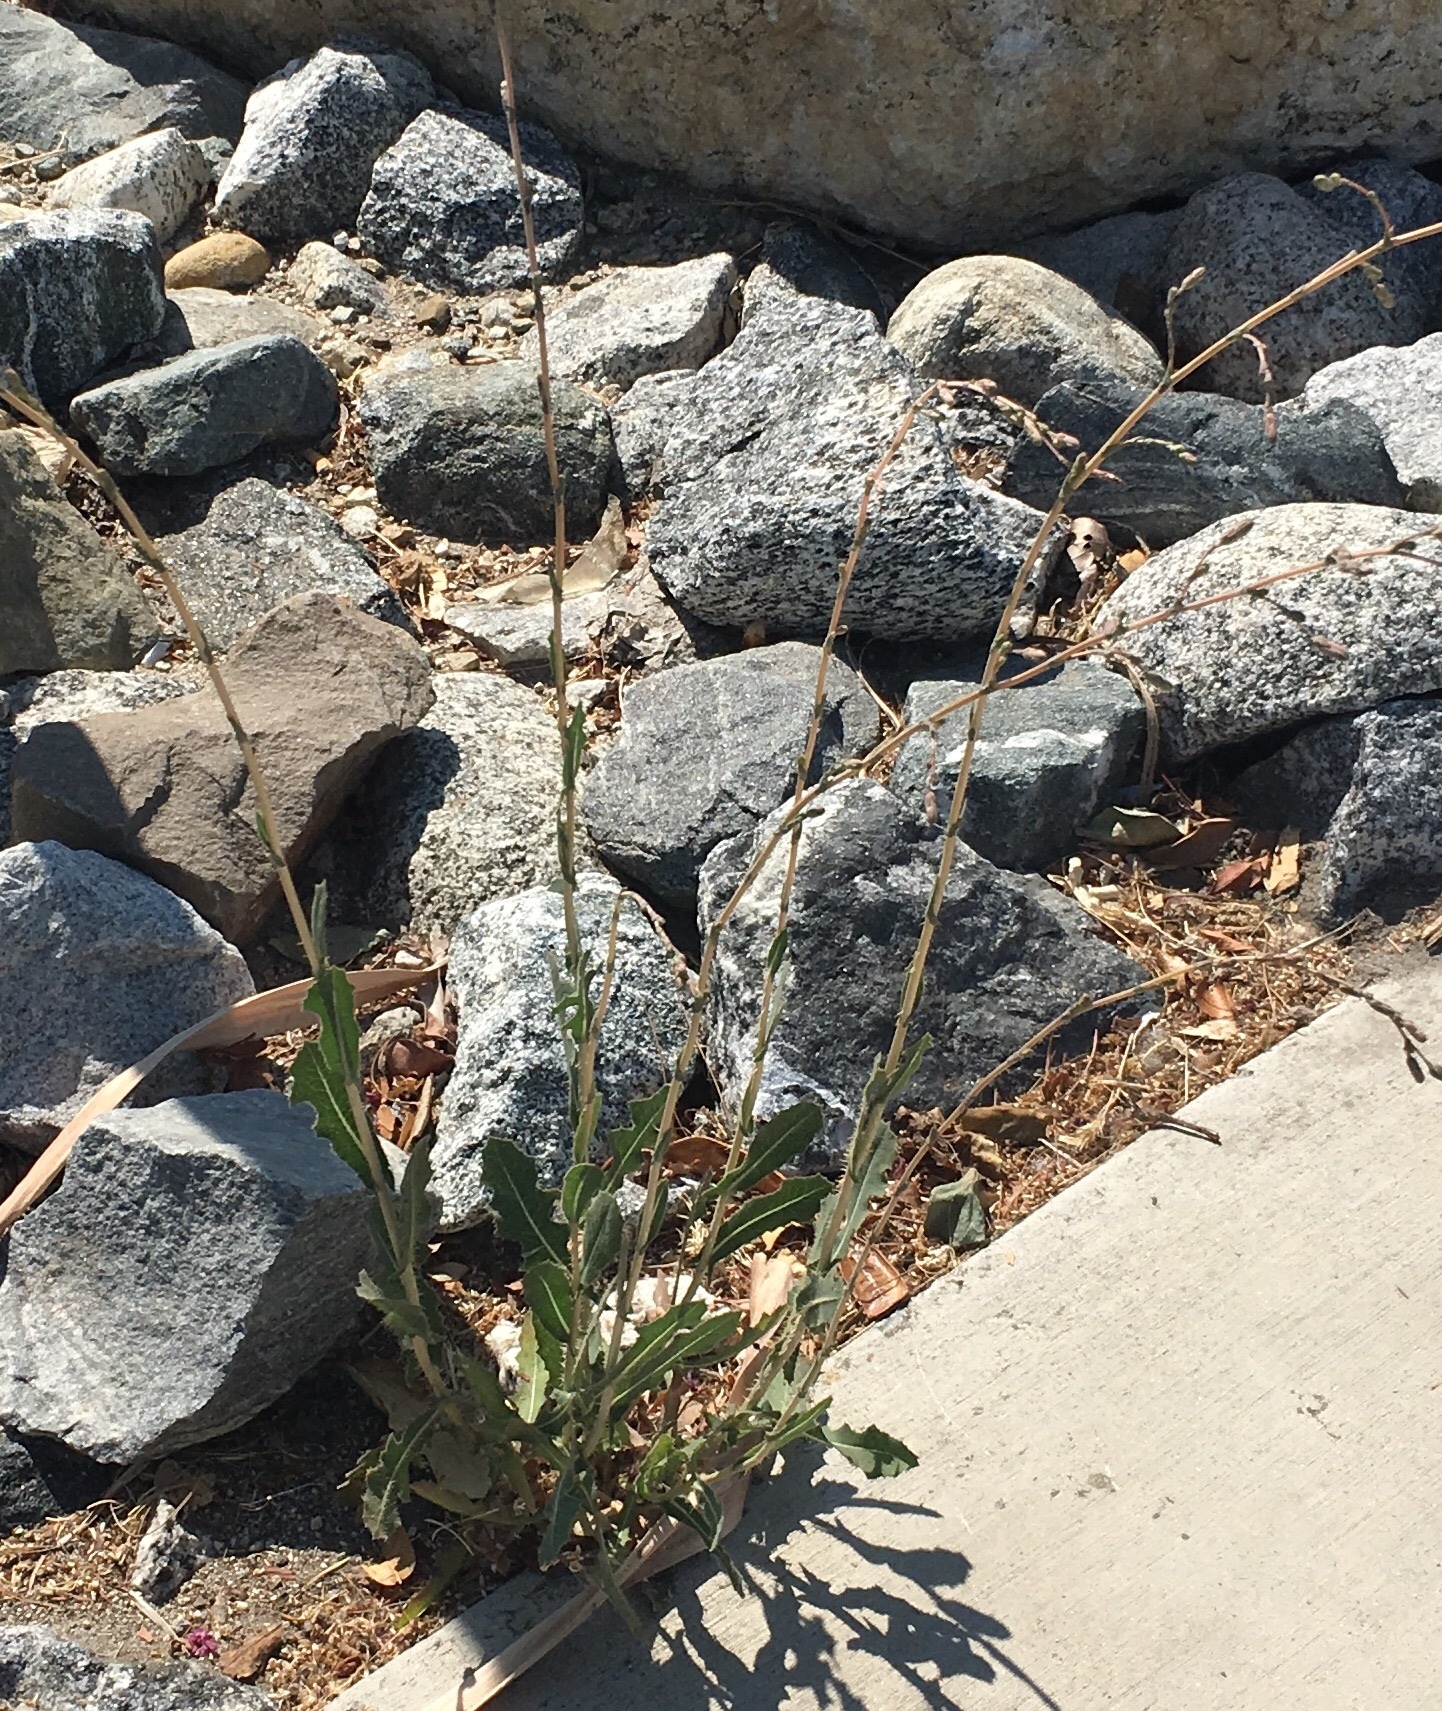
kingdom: Plantae
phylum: Tracheophyta
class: Magnoliopsida
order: Asterales
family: Asteraceae
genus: Lactuca
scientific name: Lactuca serriola
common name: Prickly lettuce
